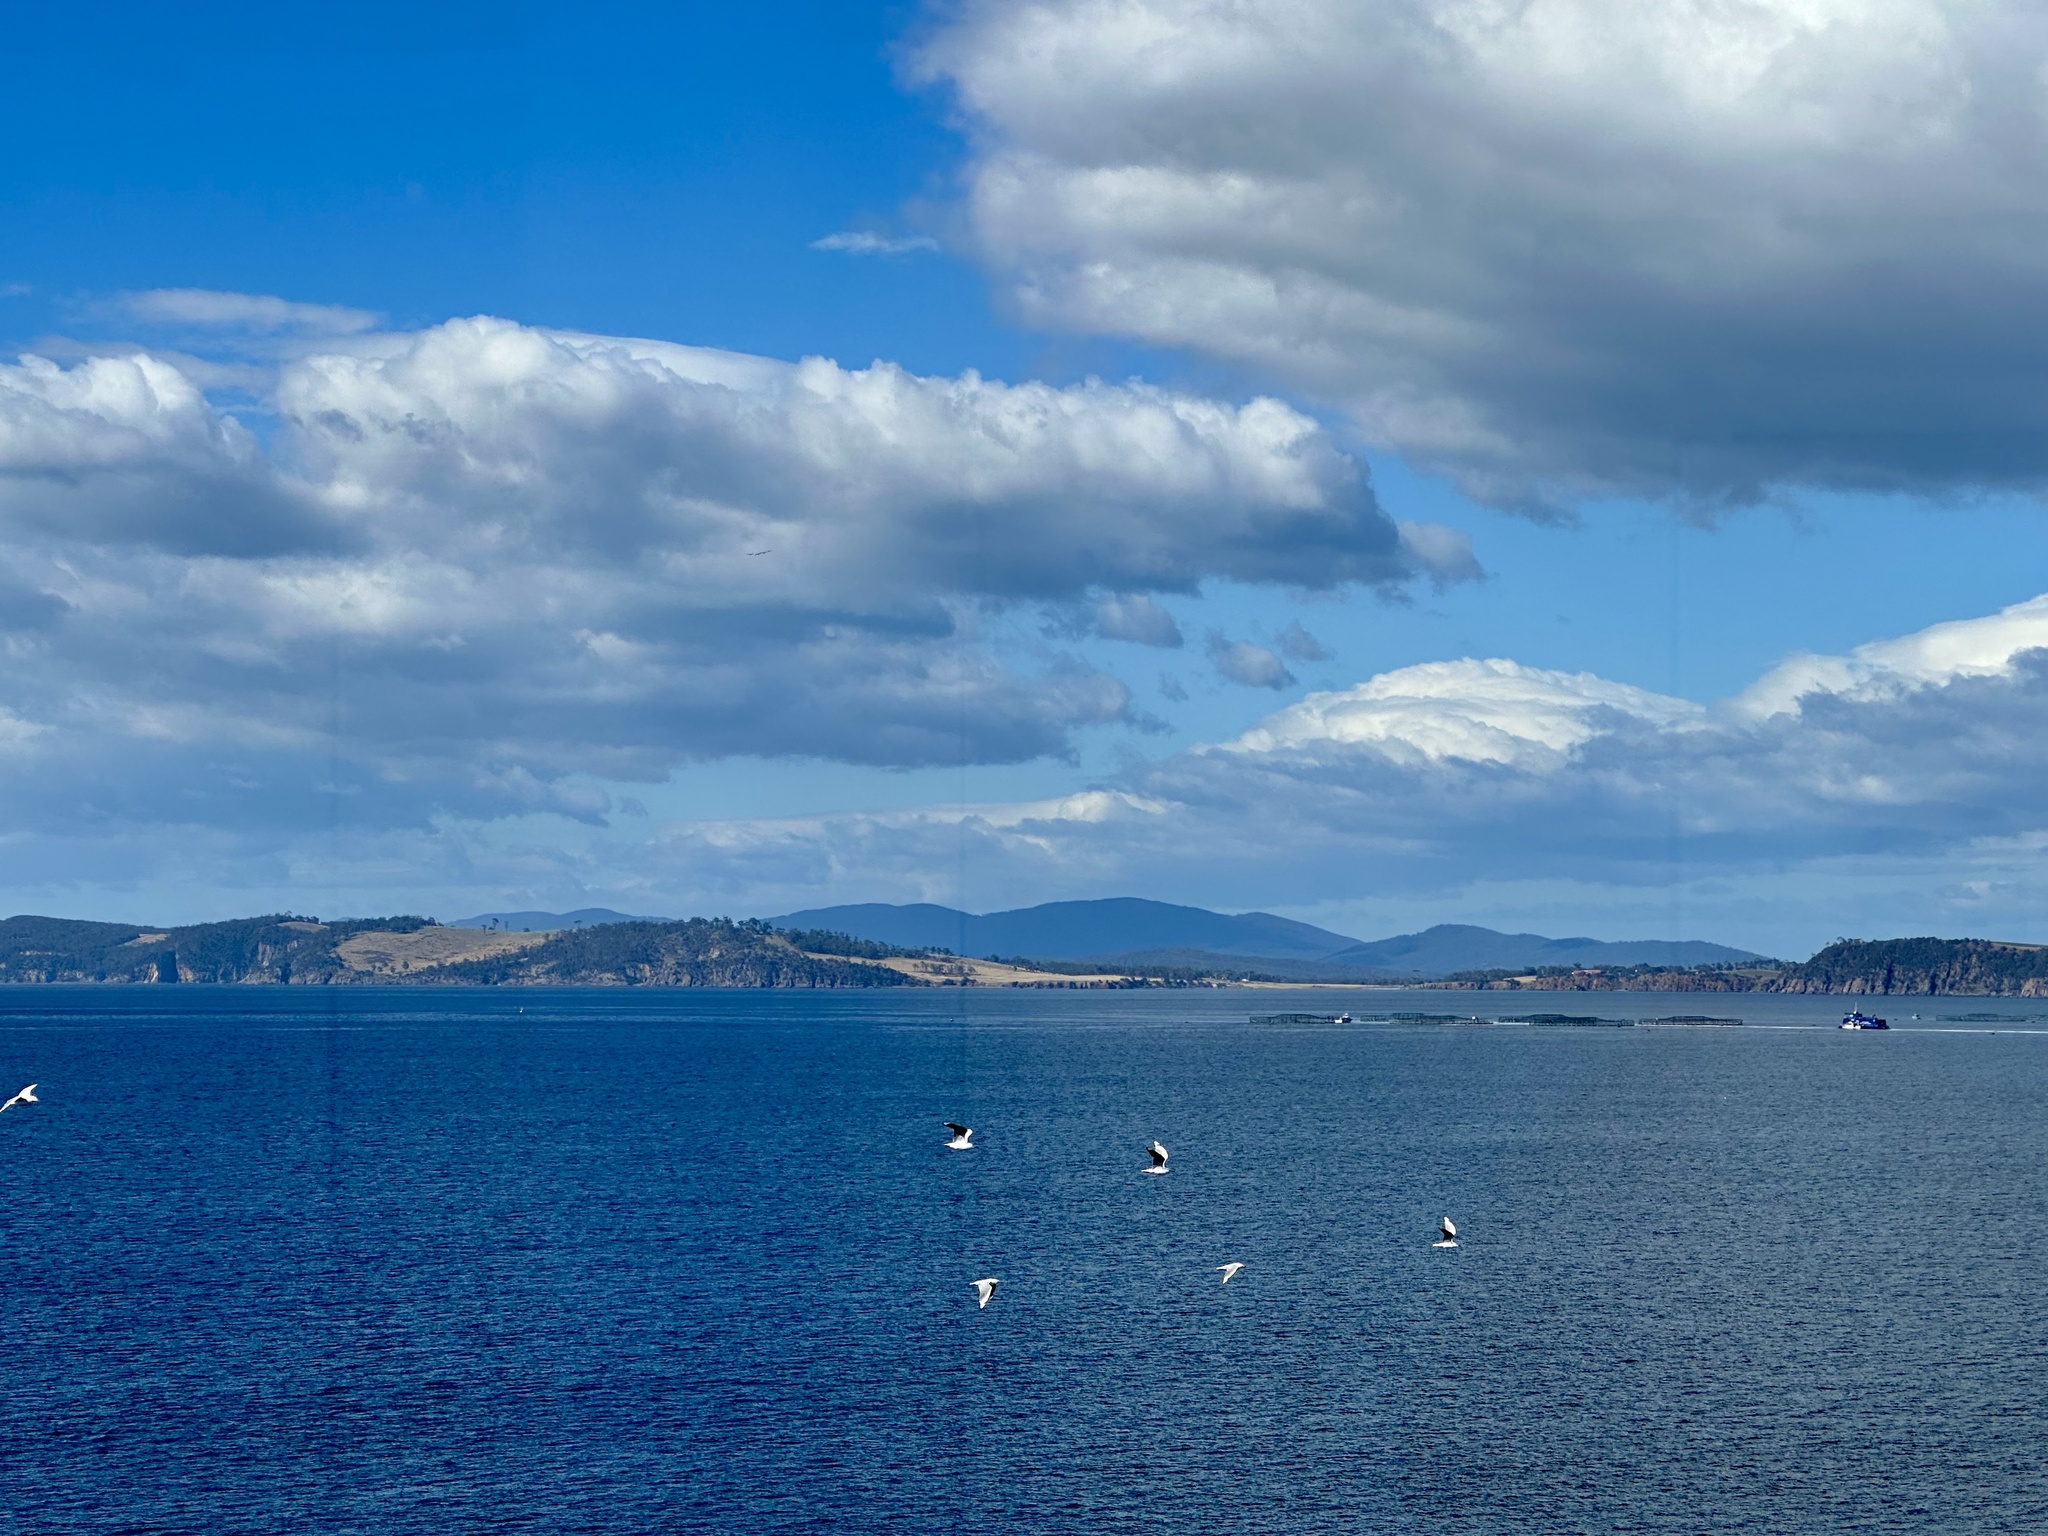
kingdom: Animalia
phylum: Chordata
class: Aves
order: Charadriiformes
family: Laridae
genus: Chroicocephalus
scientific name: Chroicocephalus novaehollandiae
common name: Silver gull
